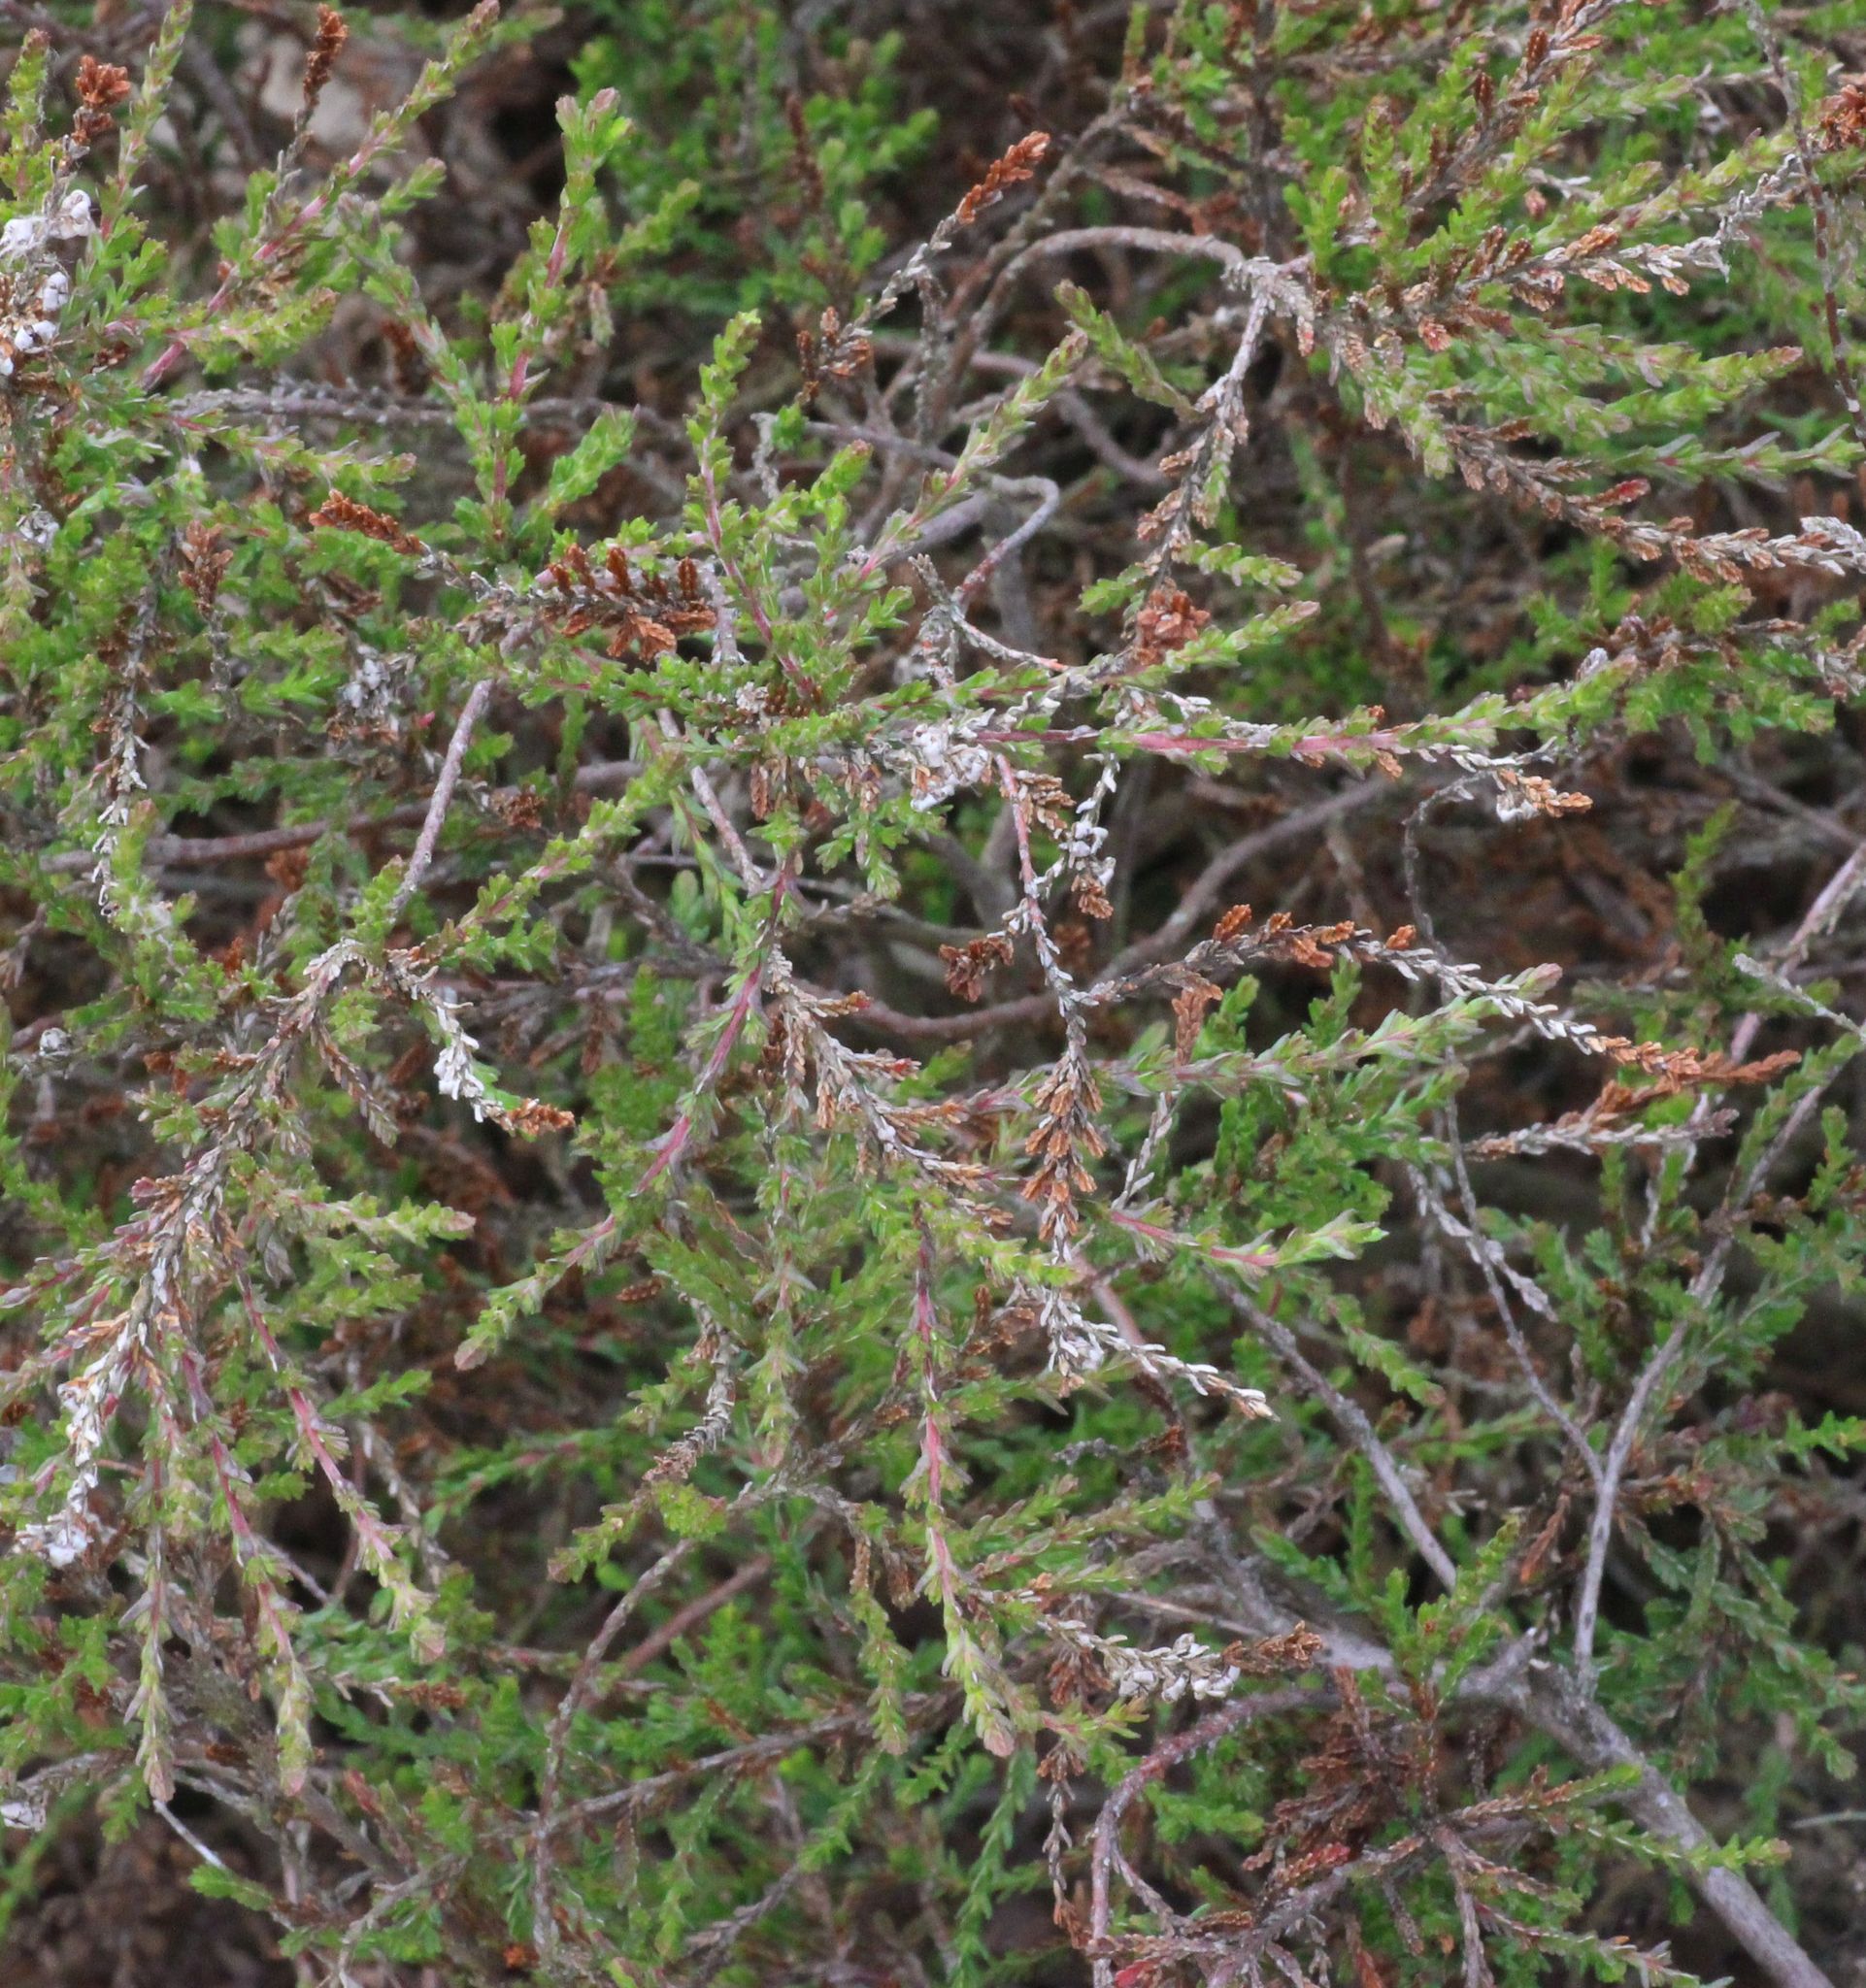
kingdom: Plantae
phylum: Tracheophyta
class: Magnoliopsida
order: Ericales
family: Ericaceae
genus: Calluna
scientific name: Calluna vulgaris
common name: Heather
